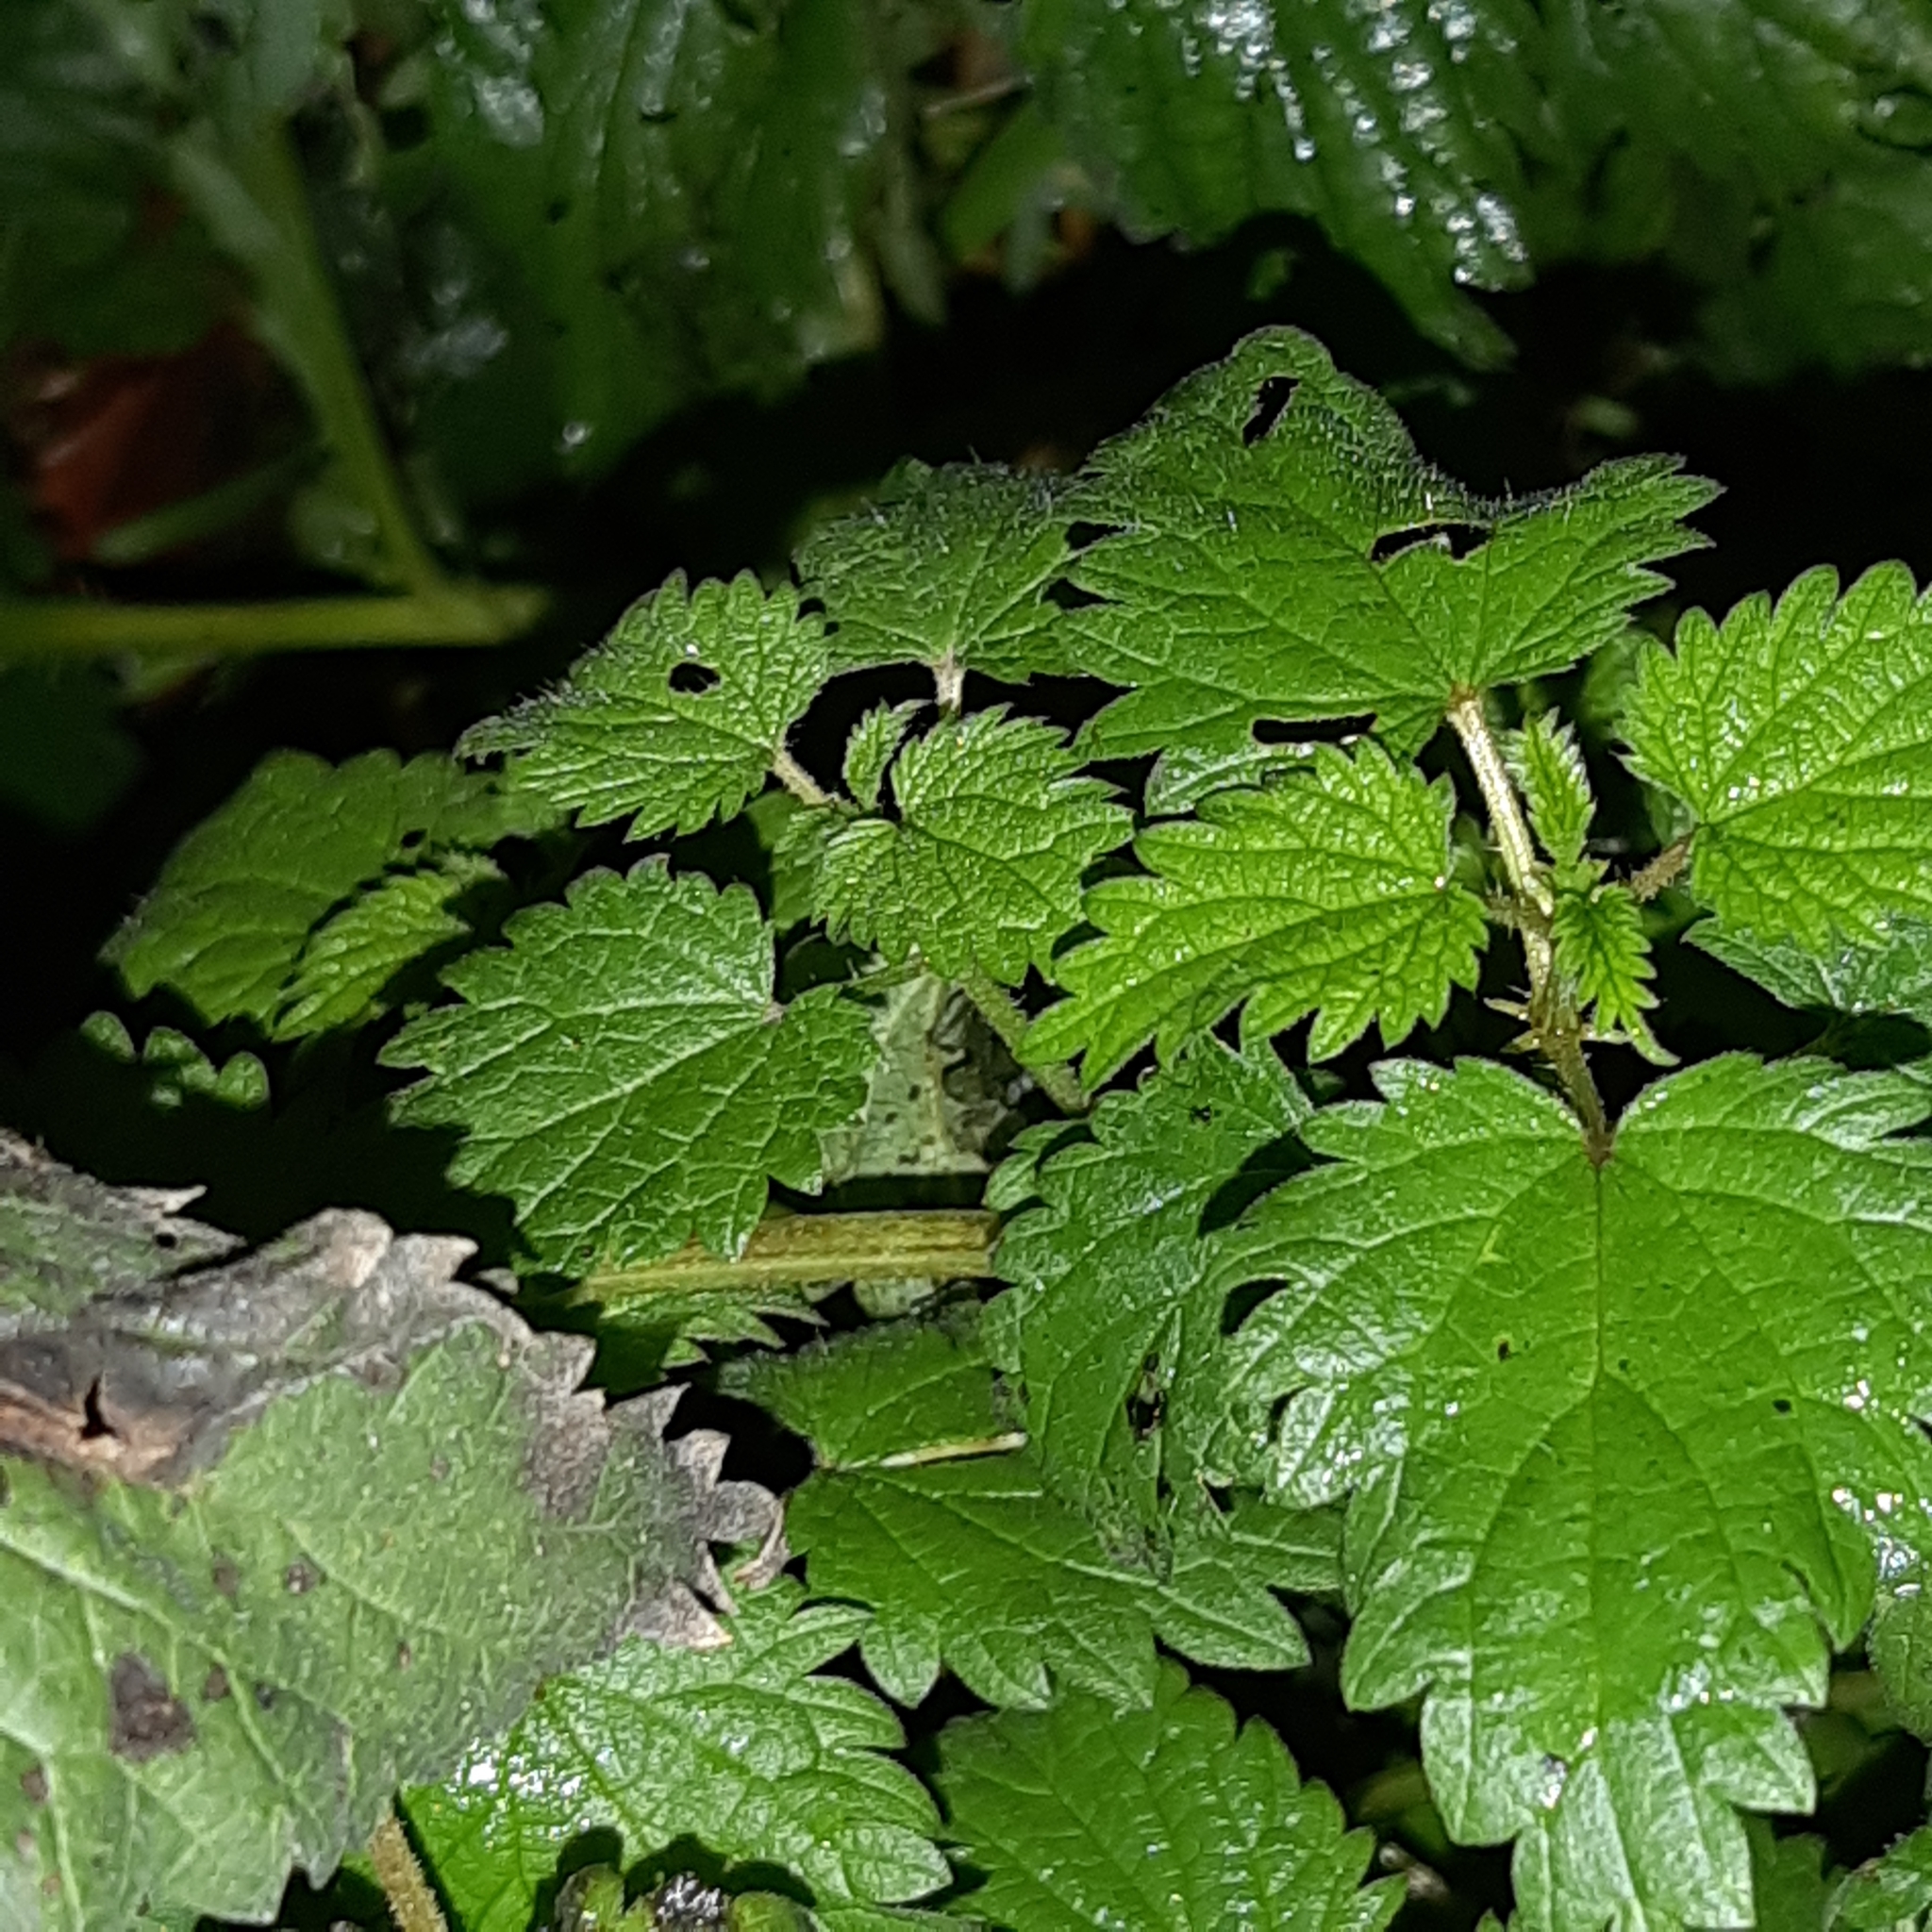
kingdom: Plantae
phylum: Tracheophyta
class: Magnoliopsida
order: Rosales
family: Urticaceae
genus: Urtica
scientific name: Urtica dioica
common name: Common nettle
